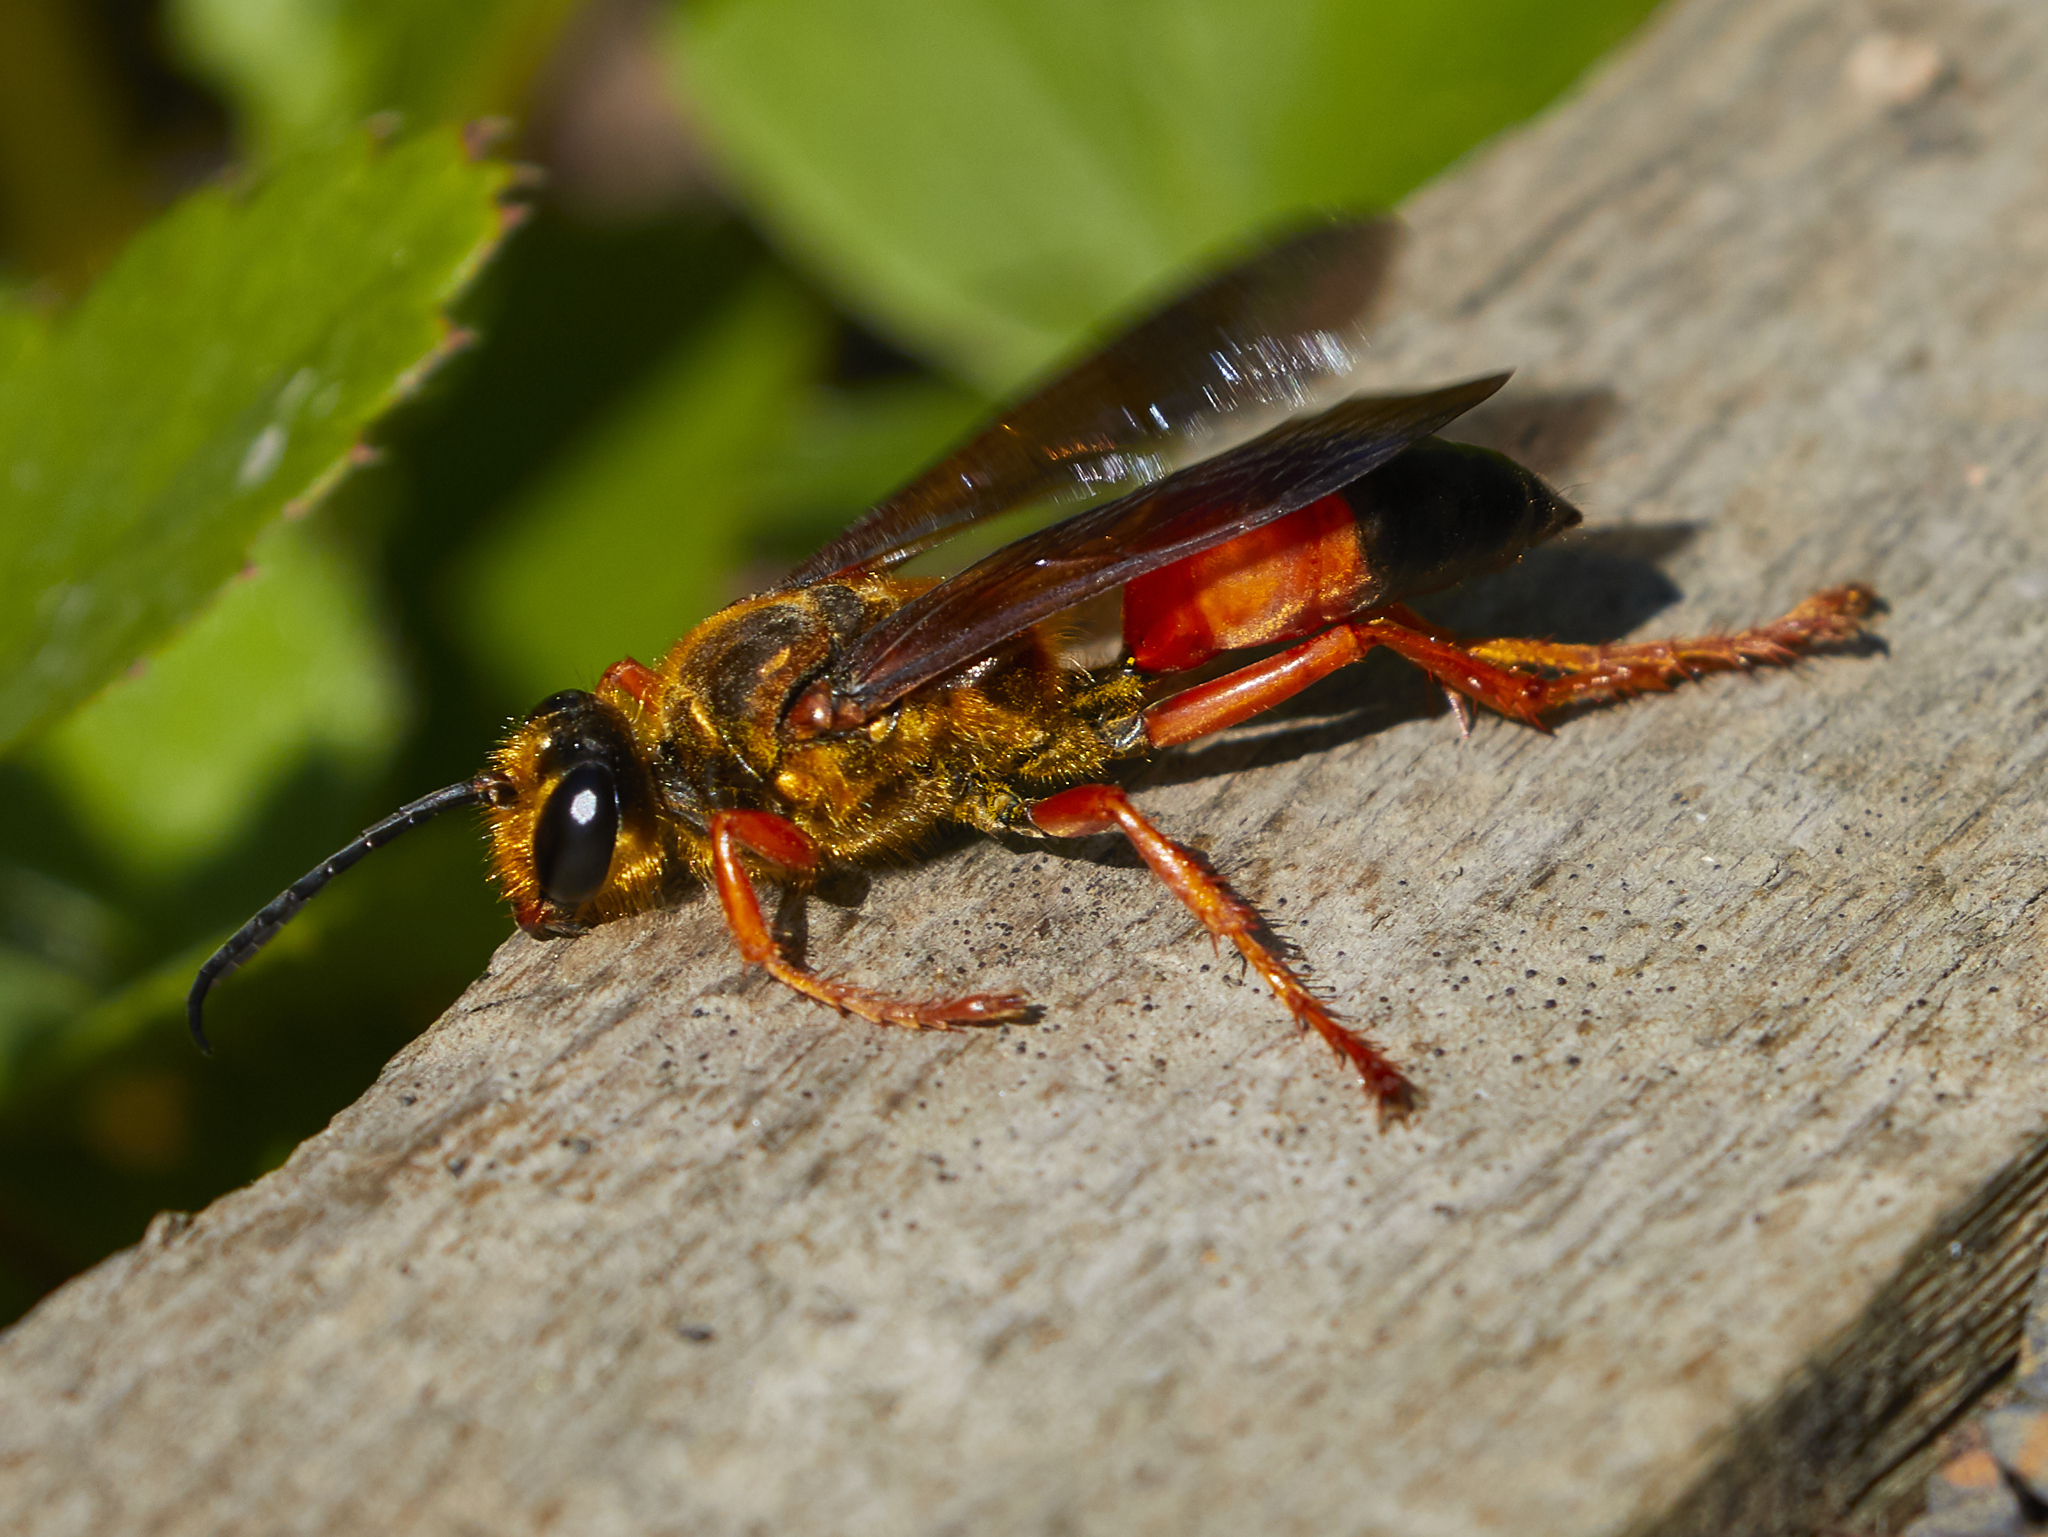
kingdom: Animalia
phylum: Arthropoda
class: Insecta
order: Hymenoptera
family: Sphecidae
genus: Sphex
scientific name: Sphex ichneumoneus
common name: Great golden digger wasp
